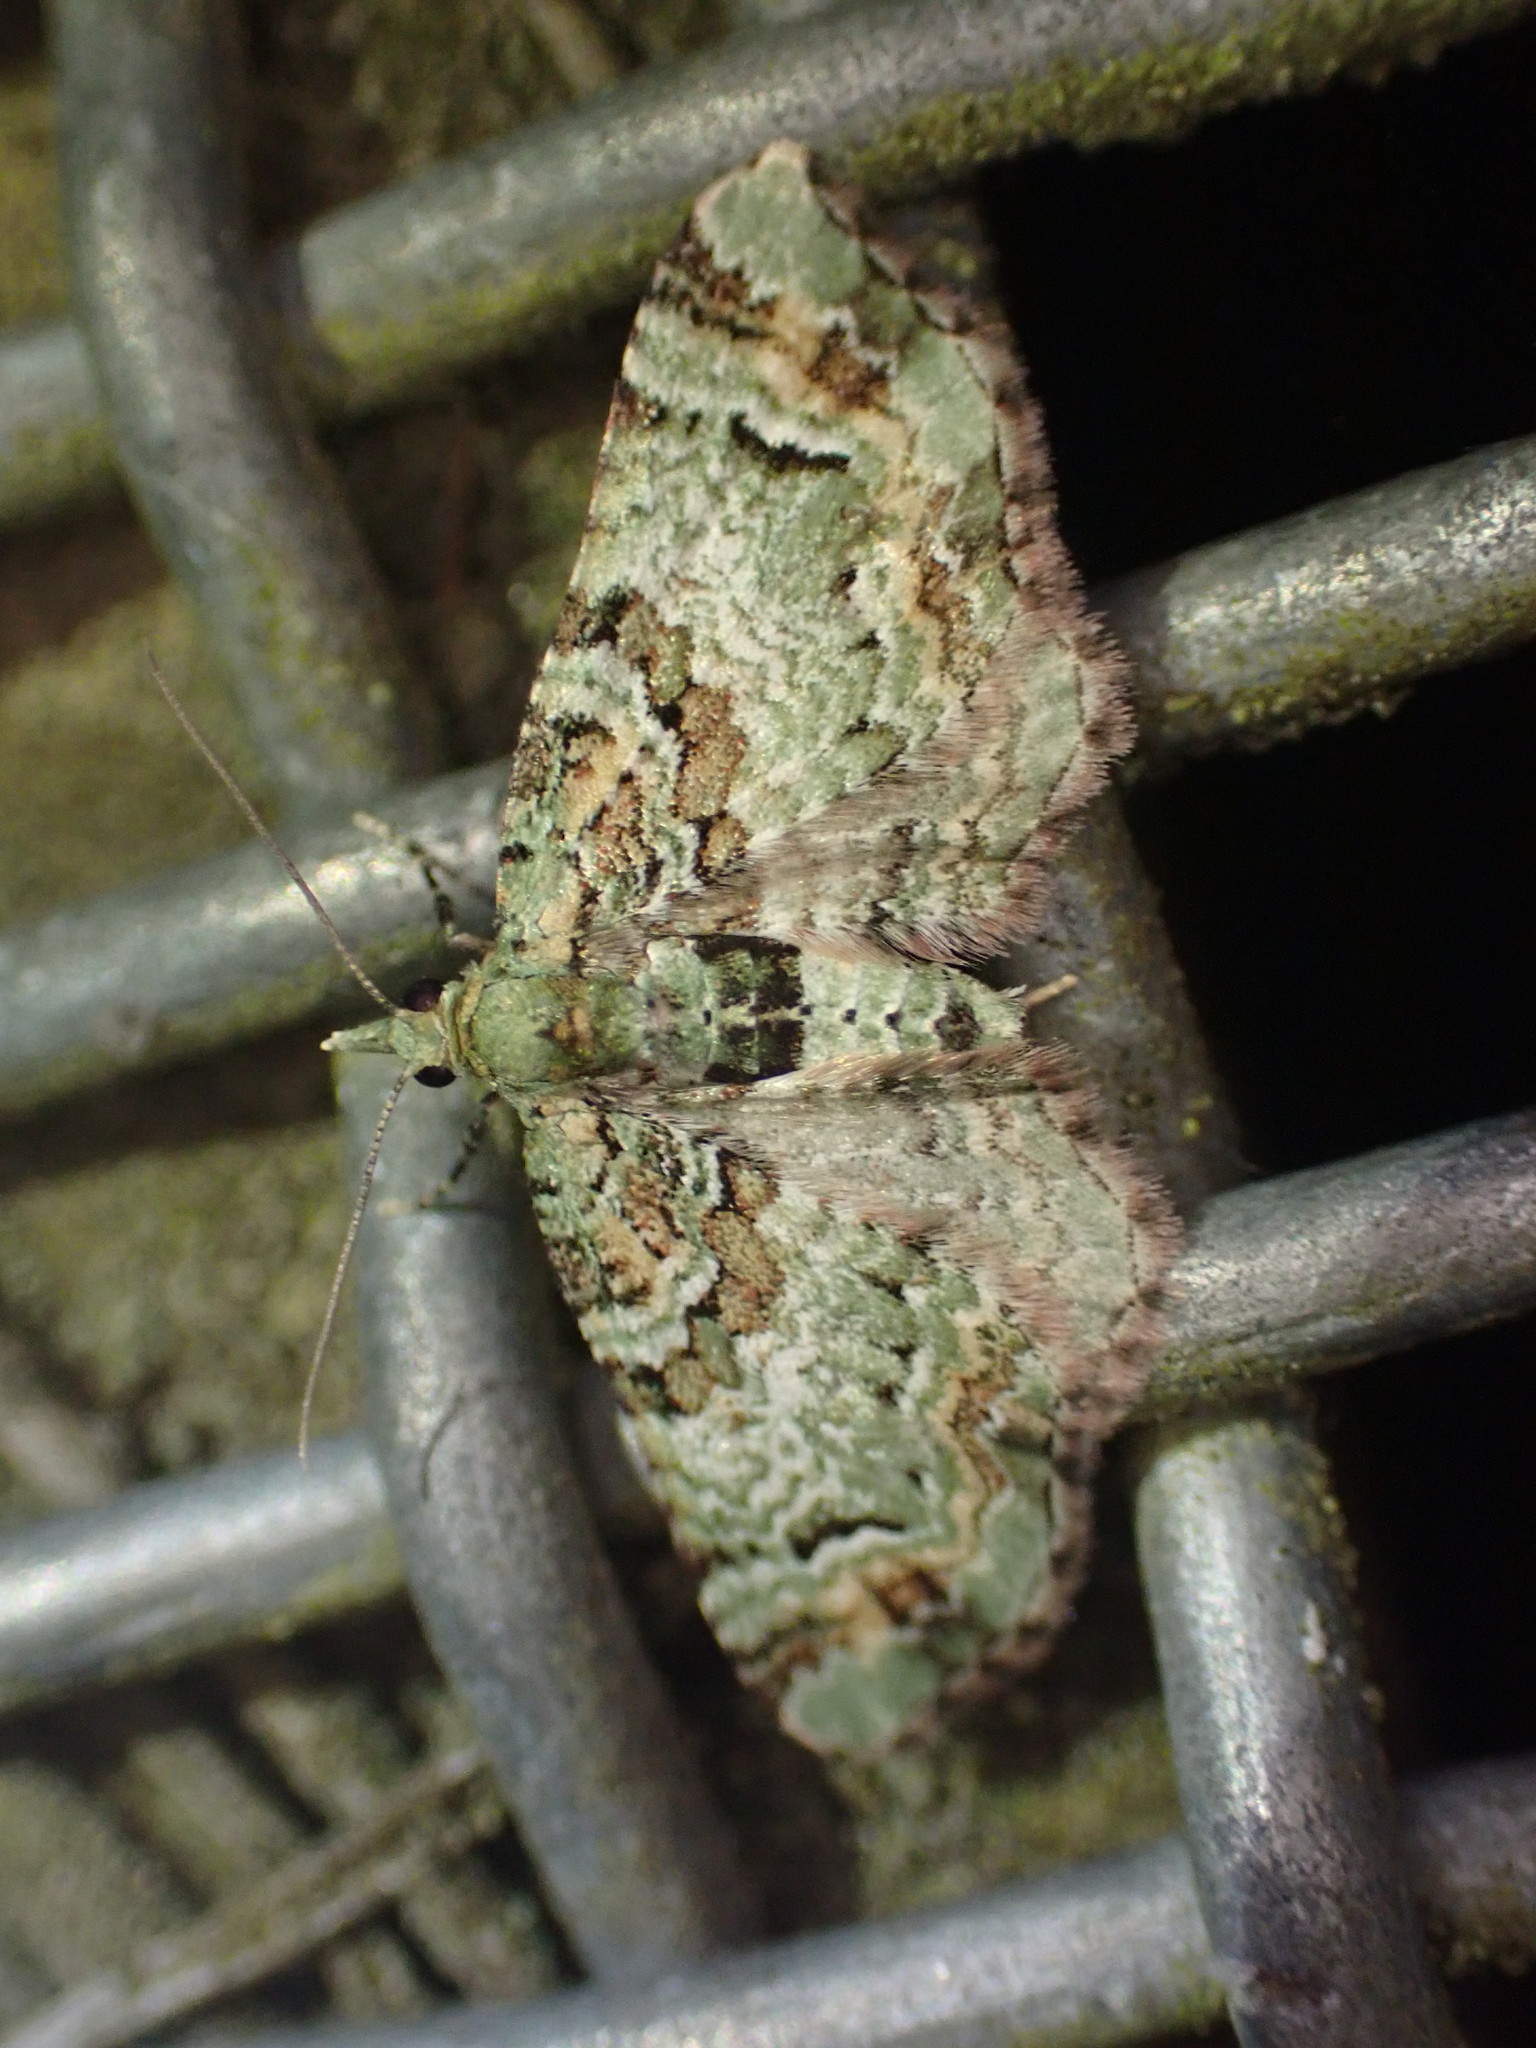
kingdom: Animalia
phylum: Arthropoda
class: Insecta
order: Lepidoptera
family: Geometridae
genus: Pasiphila
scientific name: Pasiphila bilineolata
